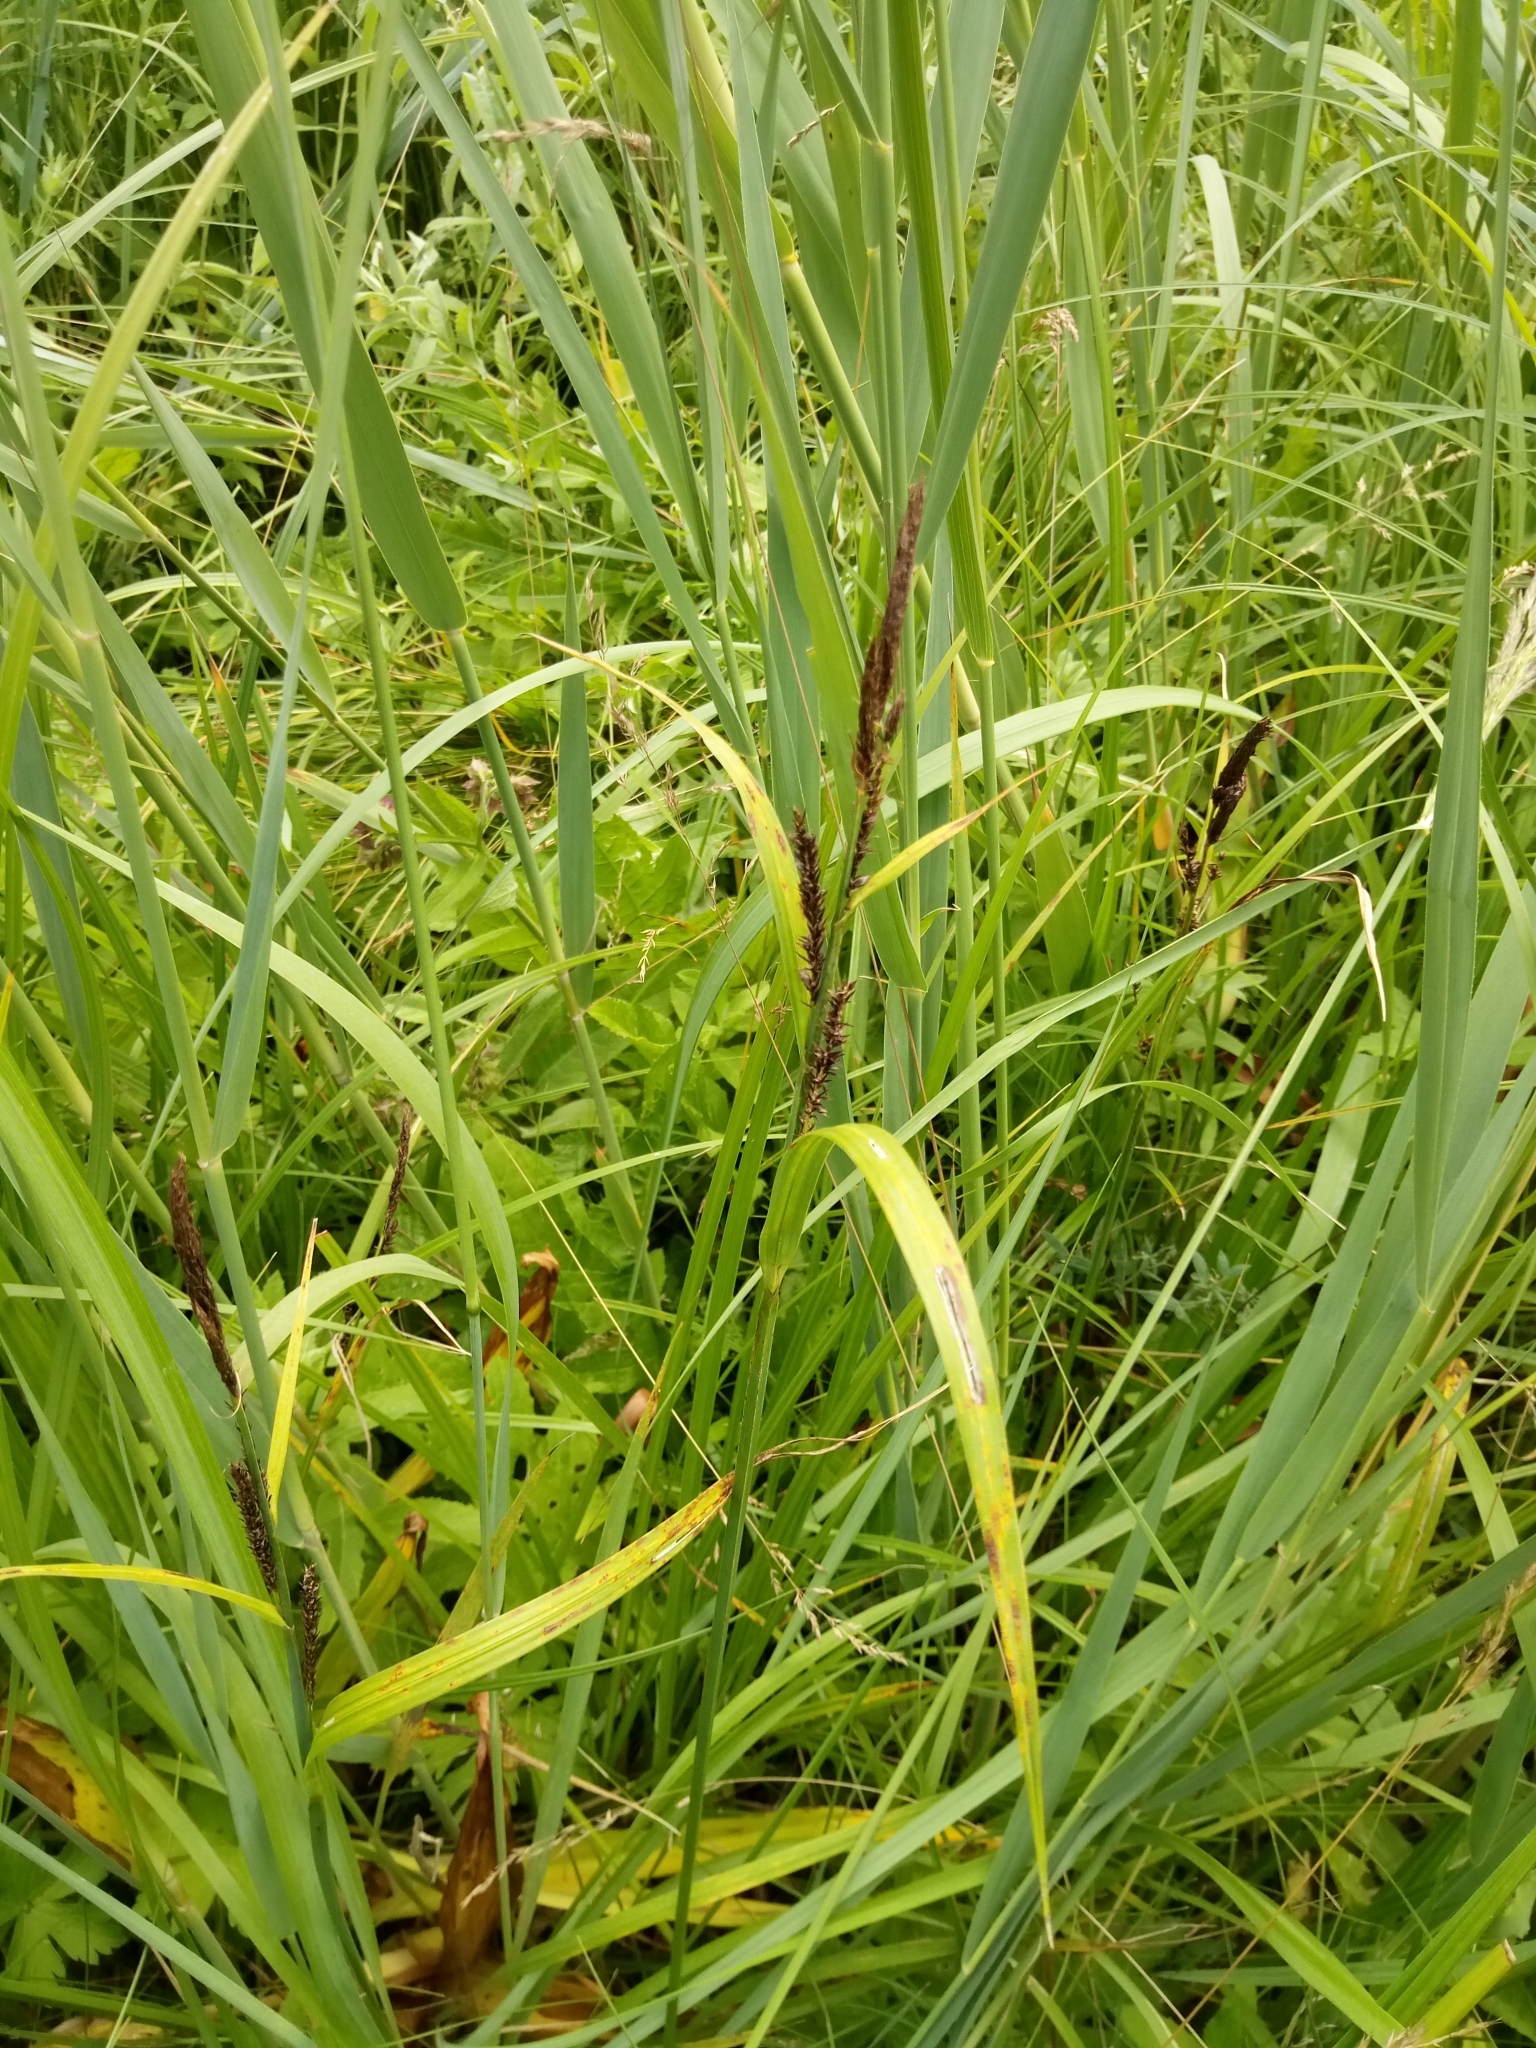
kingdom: Plantae
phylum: Tracheophyta
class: Liliopsida
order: Poales
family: Cyperaceae
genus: Carex
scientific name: Carex acuta
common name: Slender tufted-sedge
